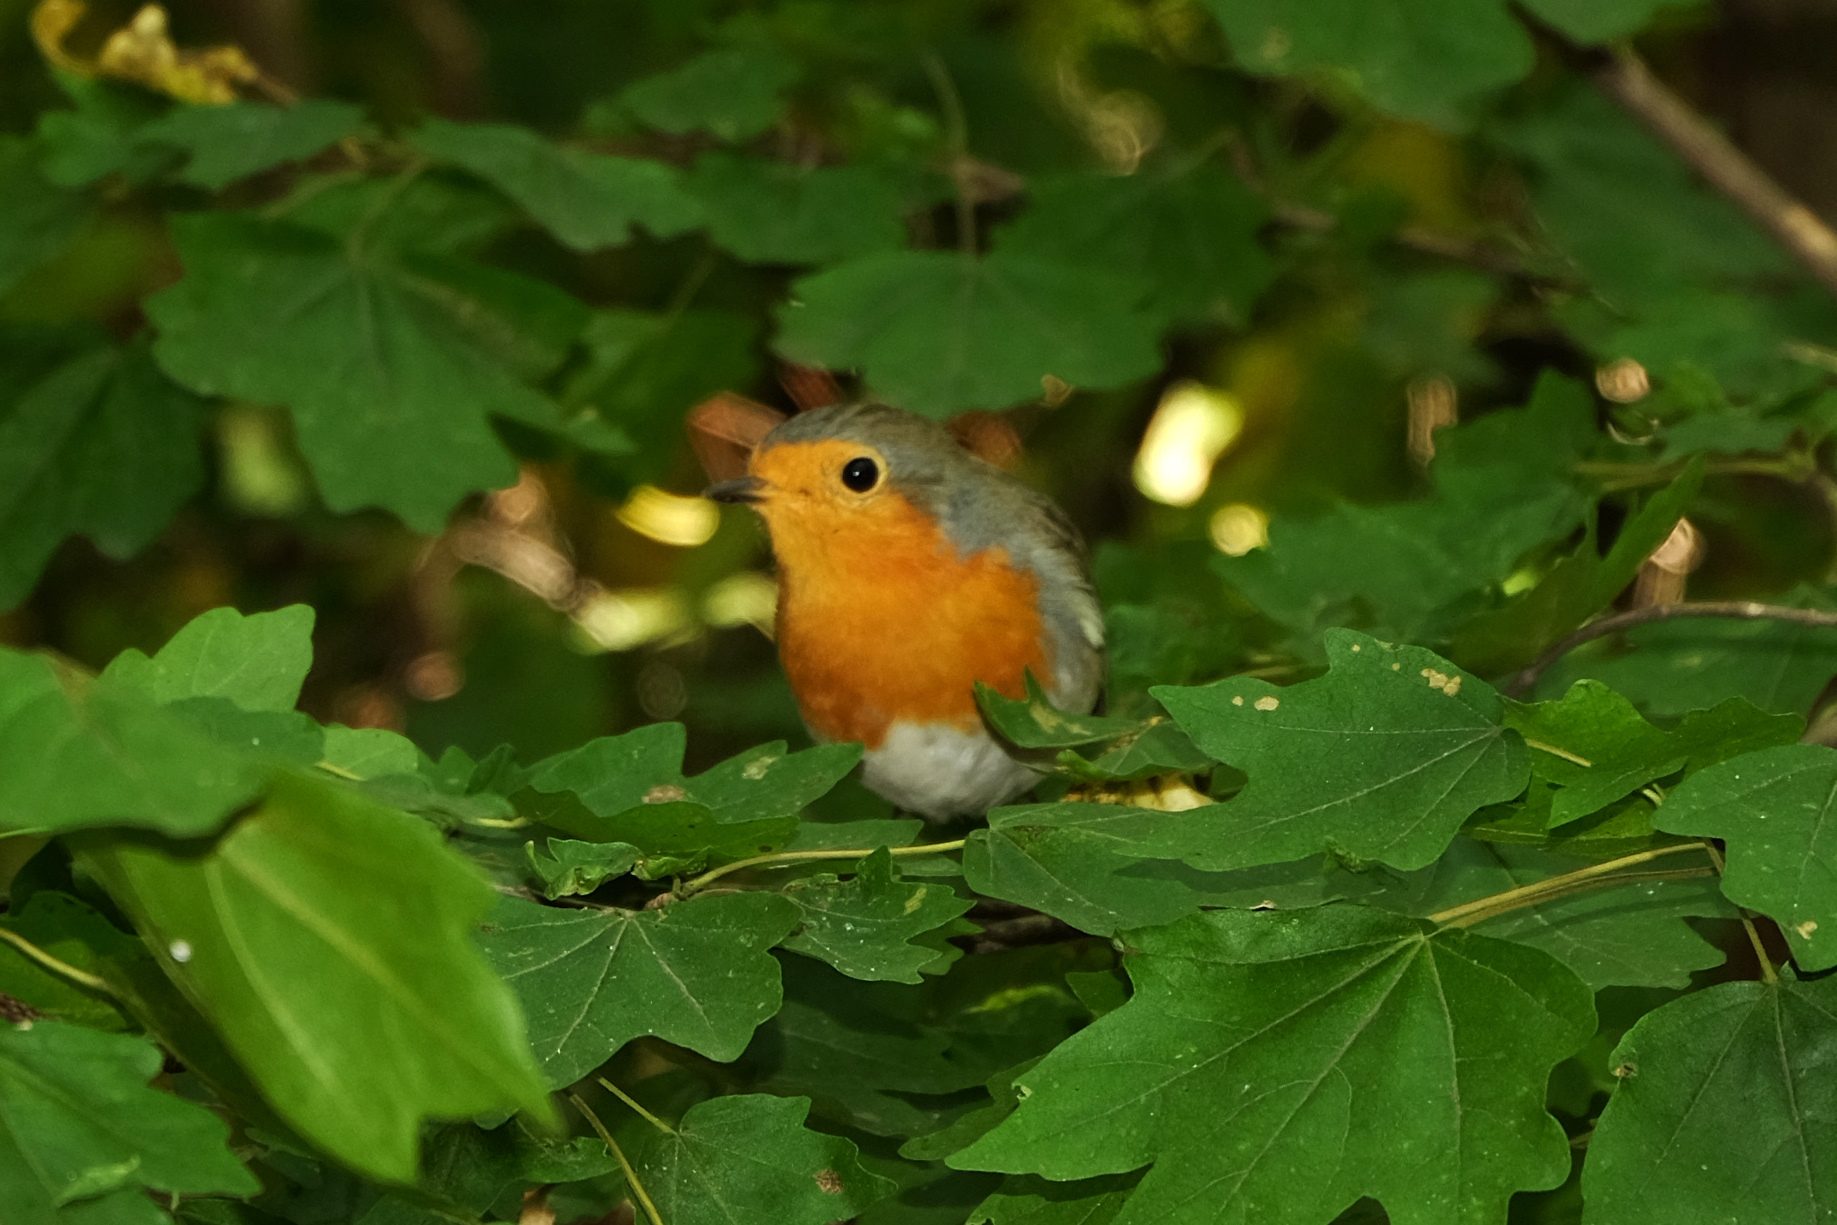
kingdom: Animalia
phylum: Chordata
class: Aves
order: Passeriformes
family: Muscicapidae
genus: Erithacus
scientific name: Erithacus rubecula
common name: European robin
